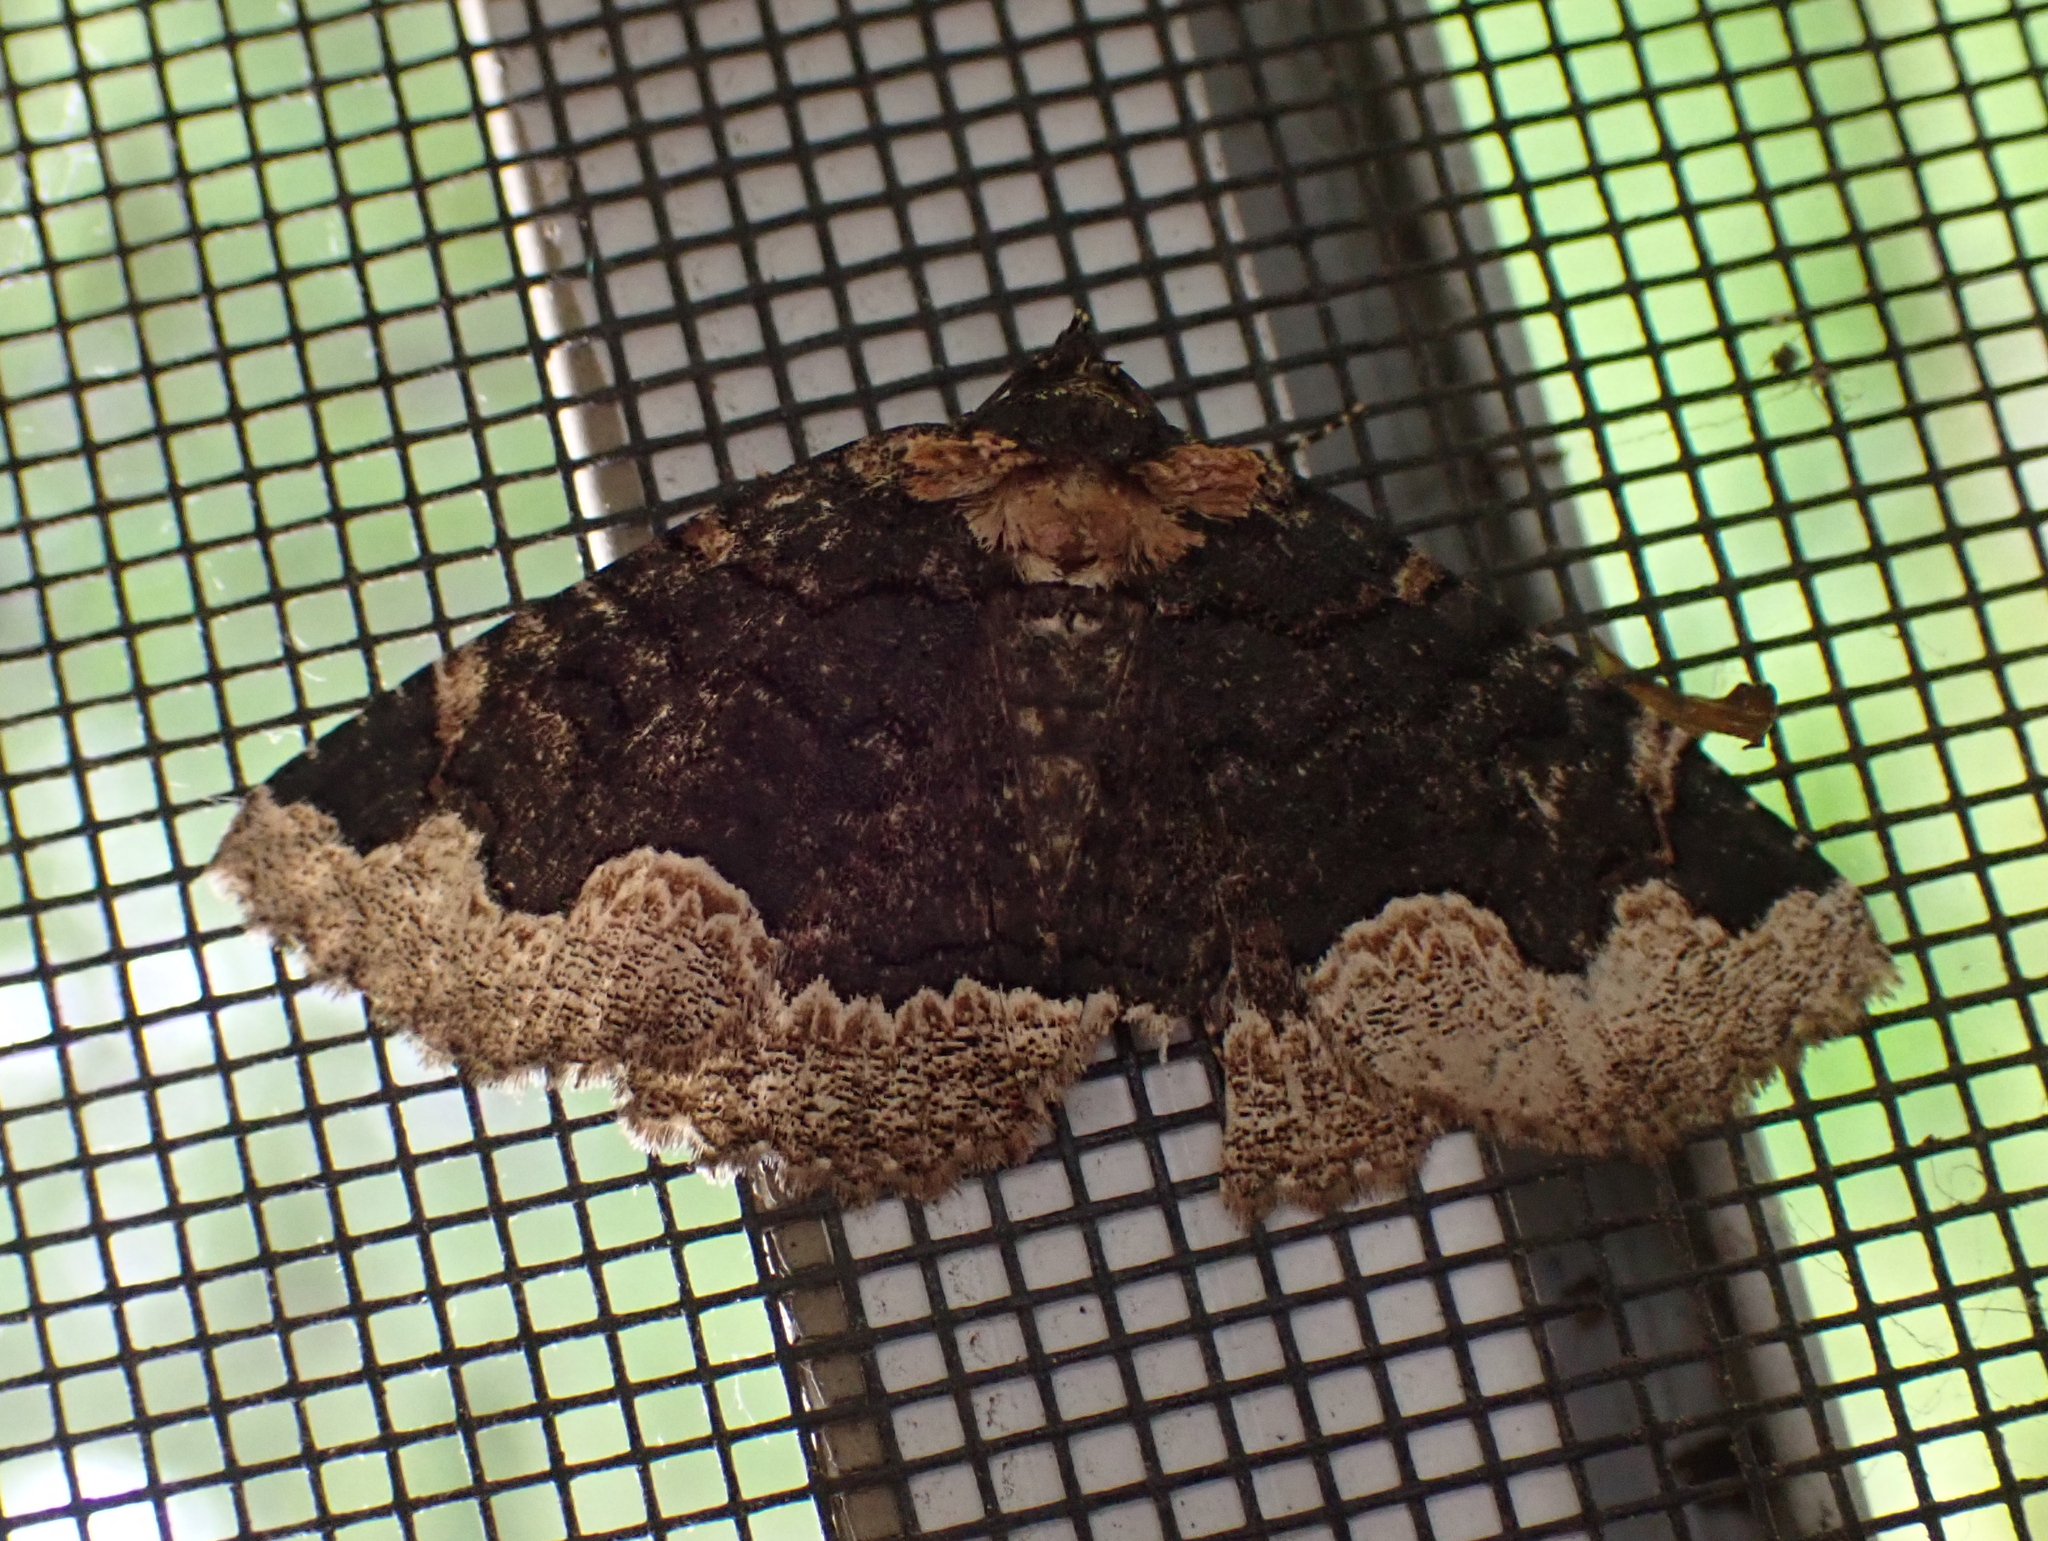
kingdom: Animalia
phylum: Arthropoda
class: Insecta
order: Lepidoptera
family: Erebidae
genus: Zale
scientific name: Zale horrida
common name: Horrid zale moth
